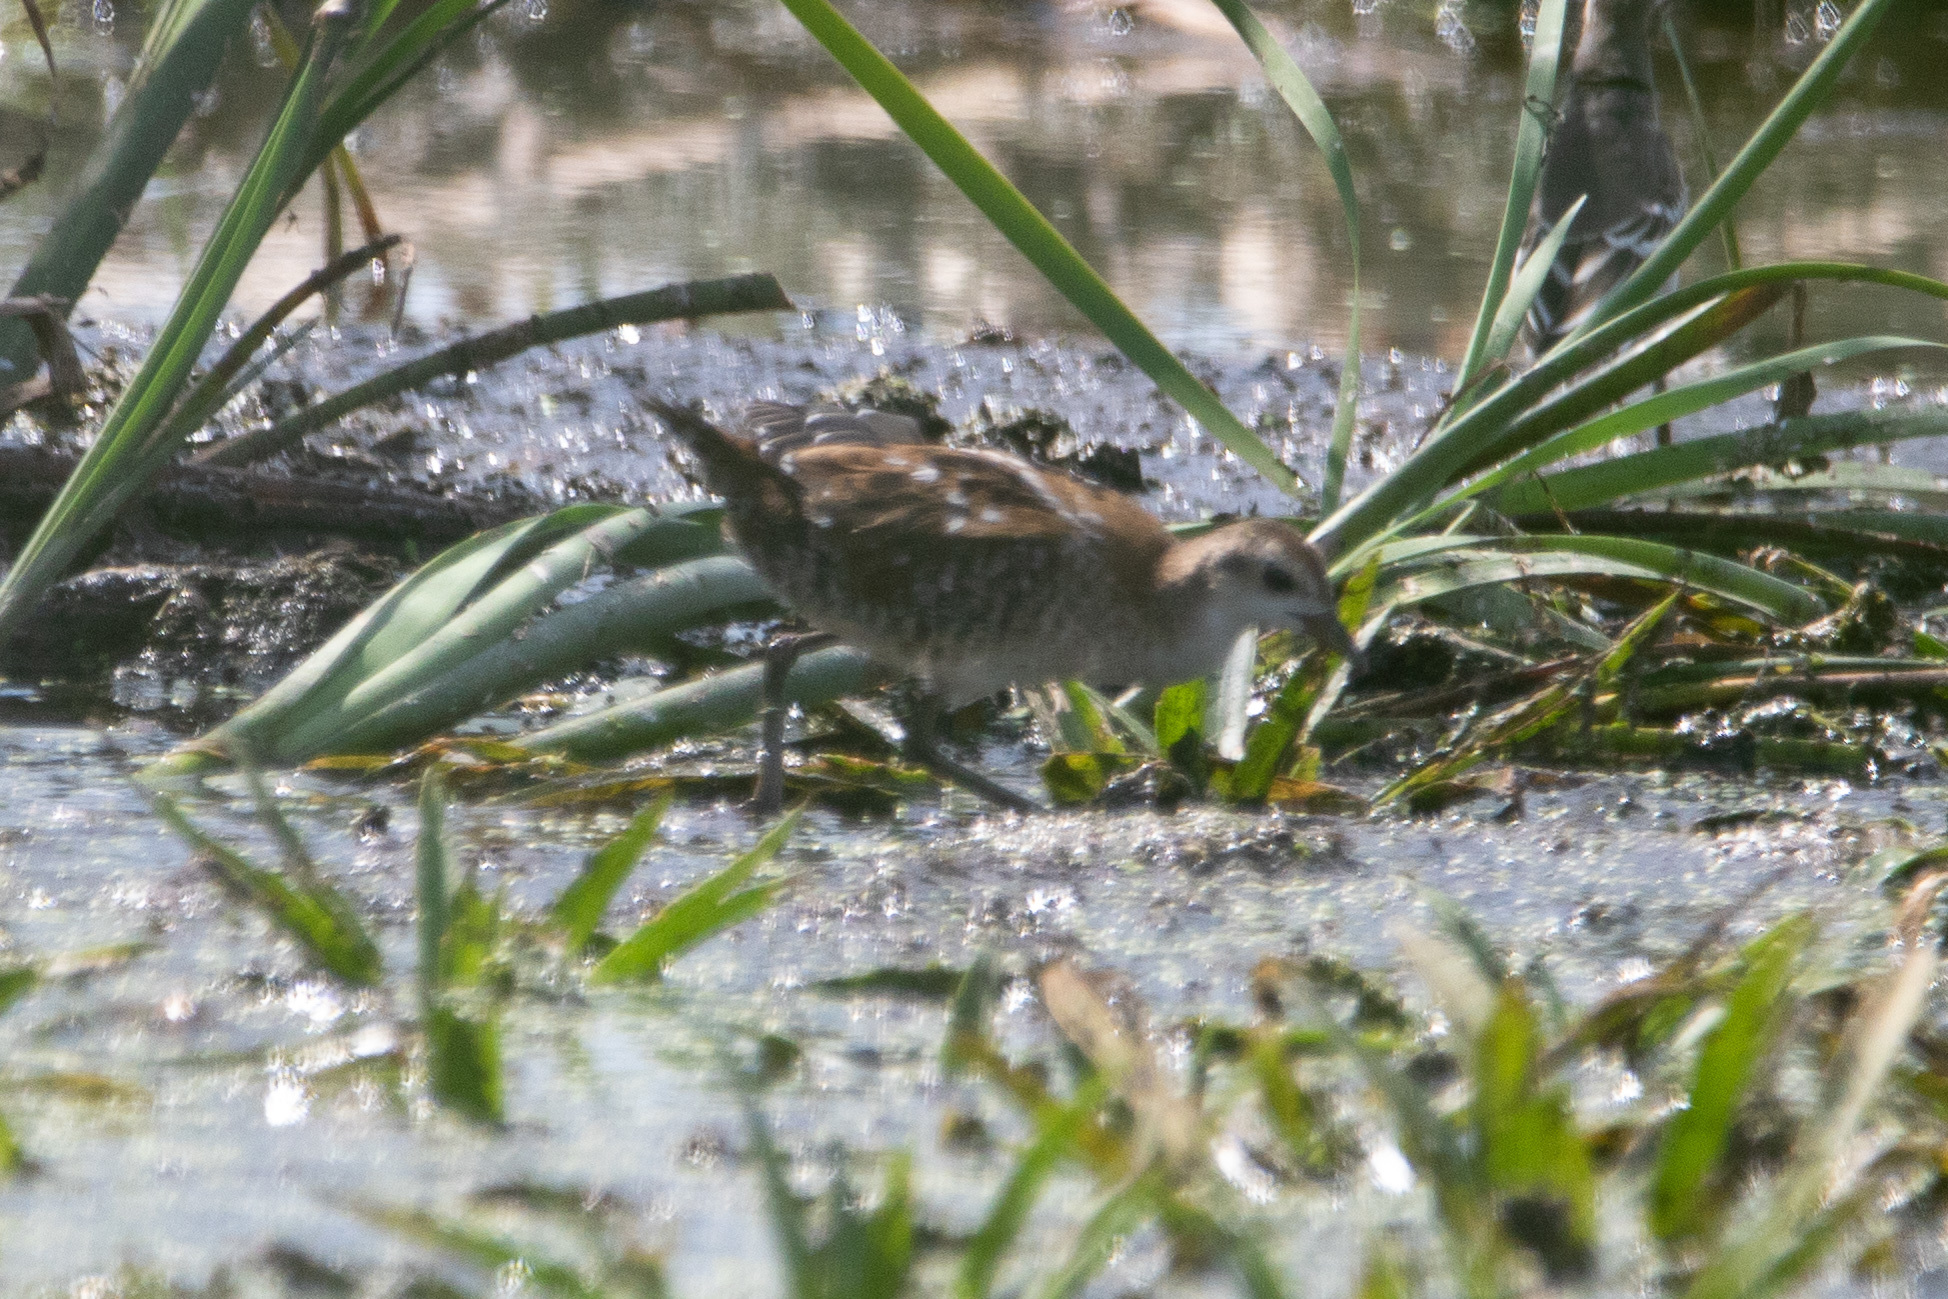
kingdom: Animalia
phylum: Chordata
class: Aves
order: Gruiformes
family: Rallidae
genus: Porzana
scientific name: Porzana parva
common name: Little crake
